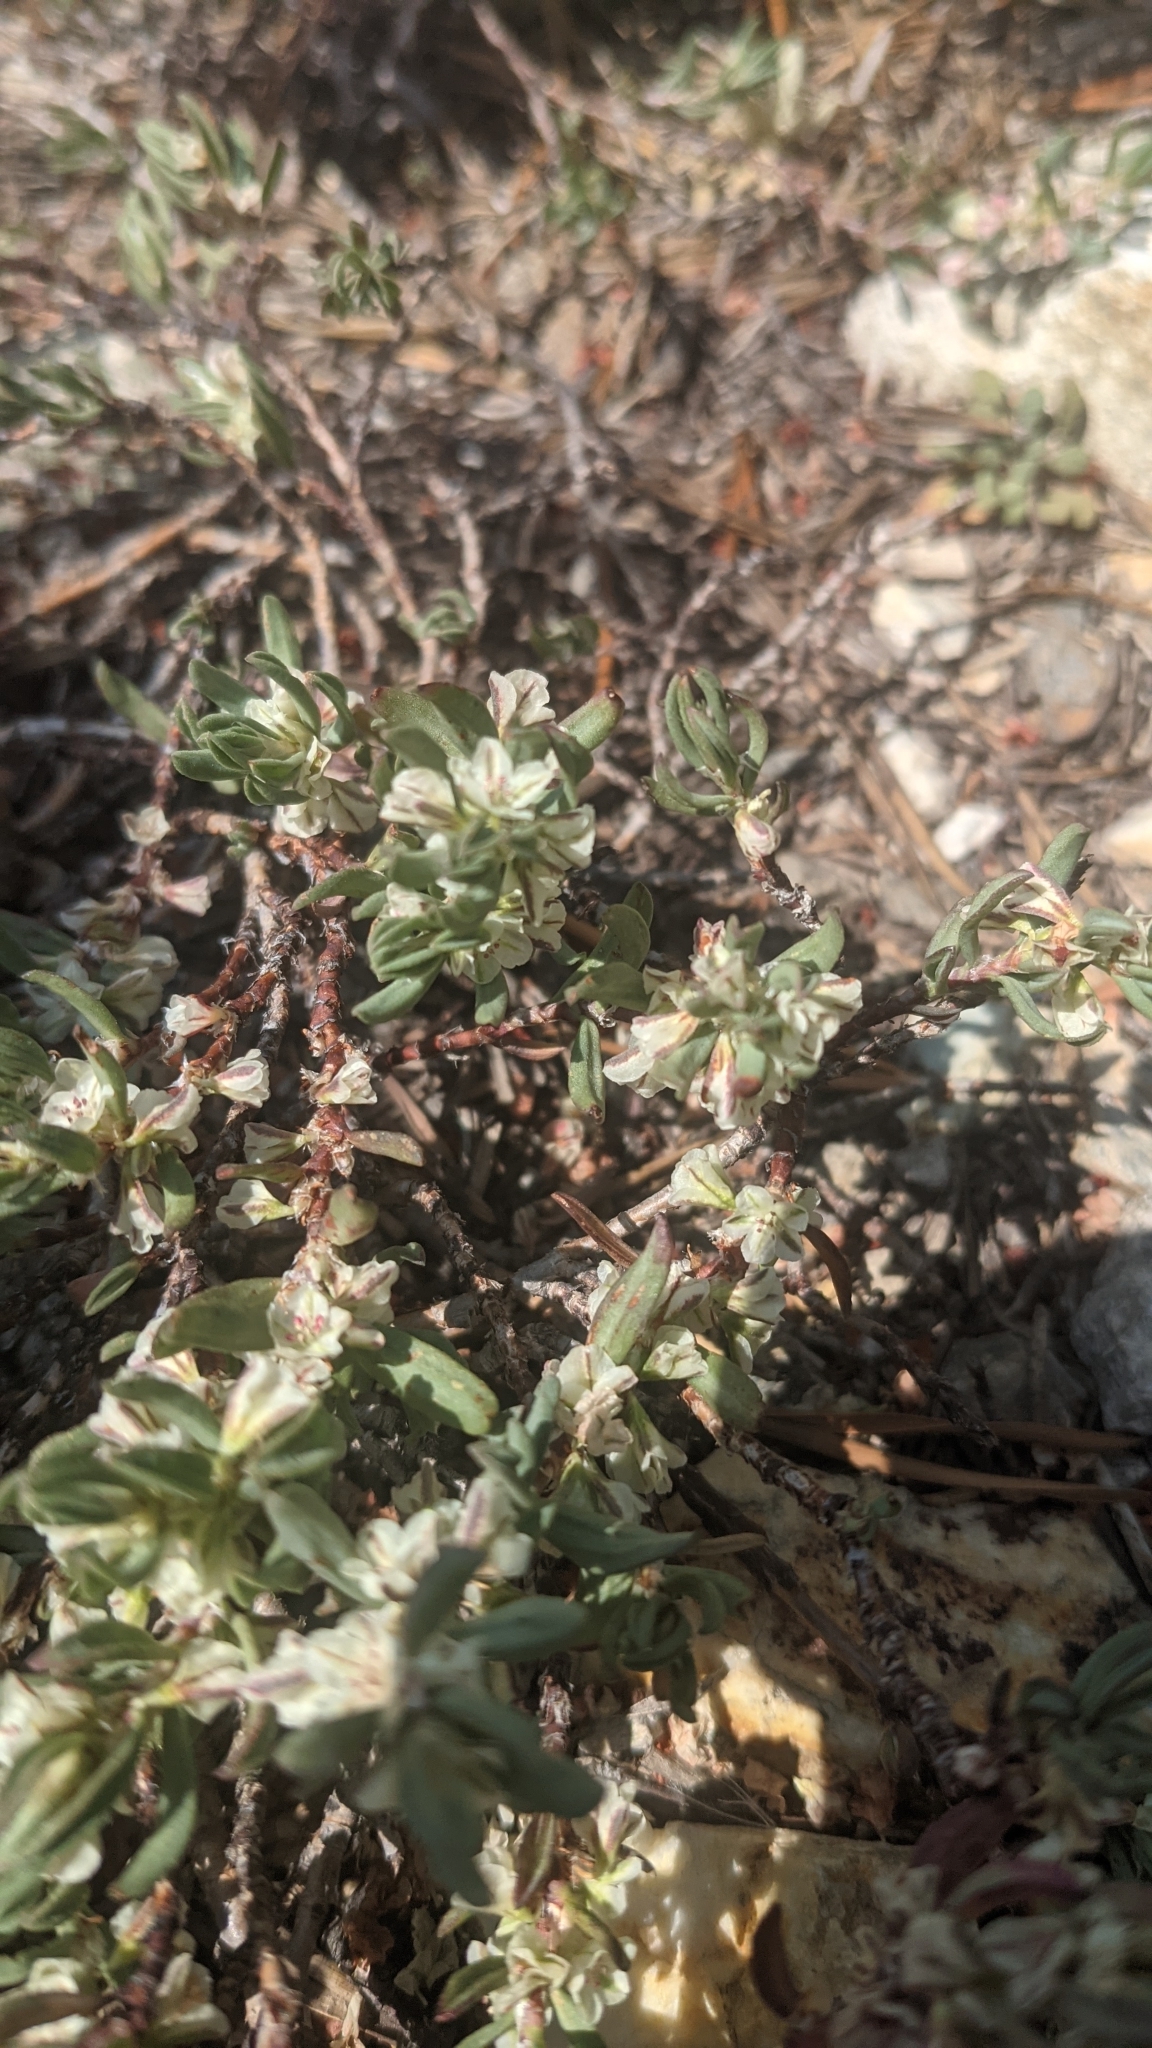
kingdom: Plantae
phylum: Tracheophyta
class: Magnoliopsida
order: Caryophyllales
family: Polygonaceae
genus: Polygonum
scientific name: Polygonum shastense
